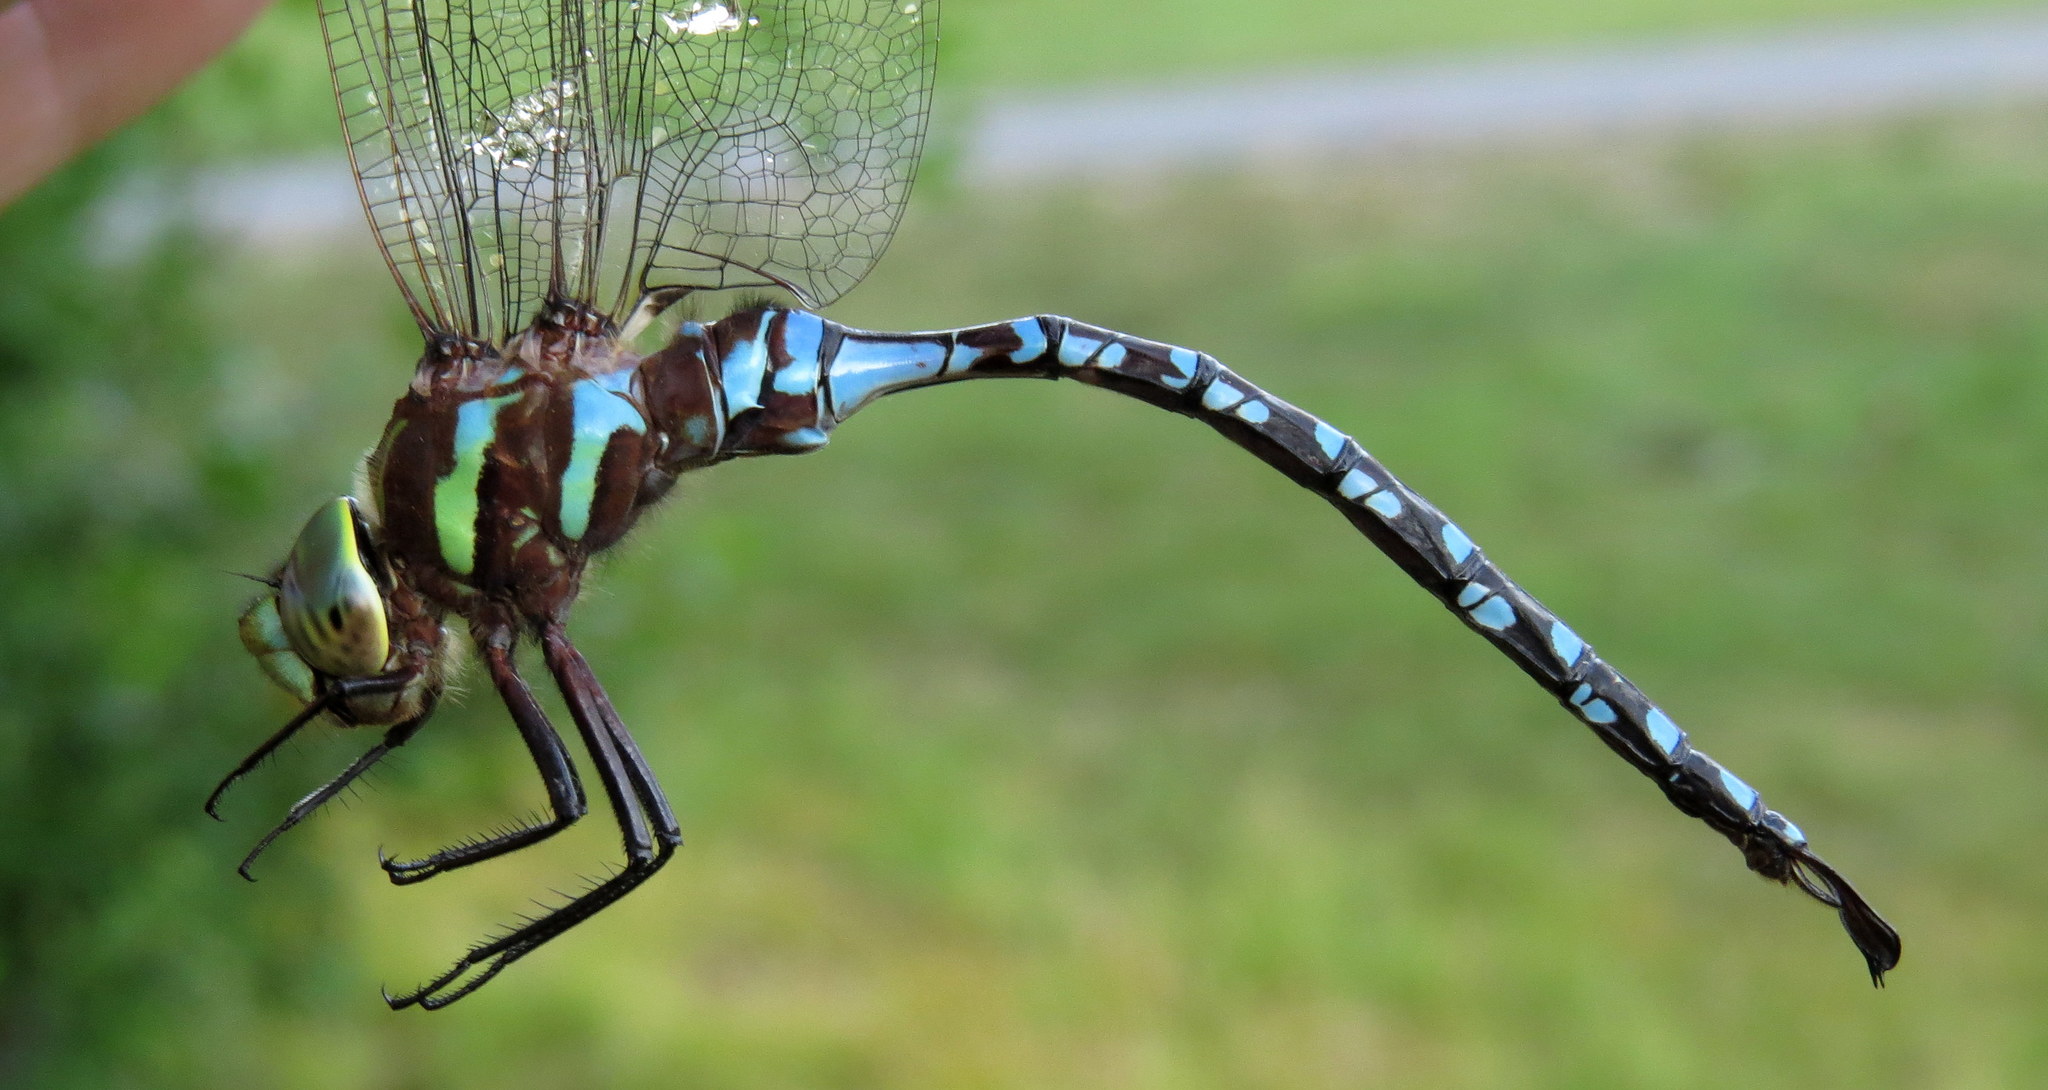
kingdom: Animalia
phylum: Arthropoda
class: Insecta
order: Odonata
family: Aeshnidae
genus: Aeshna
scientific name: Aeshna constricta
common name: Lance-tipped darner
